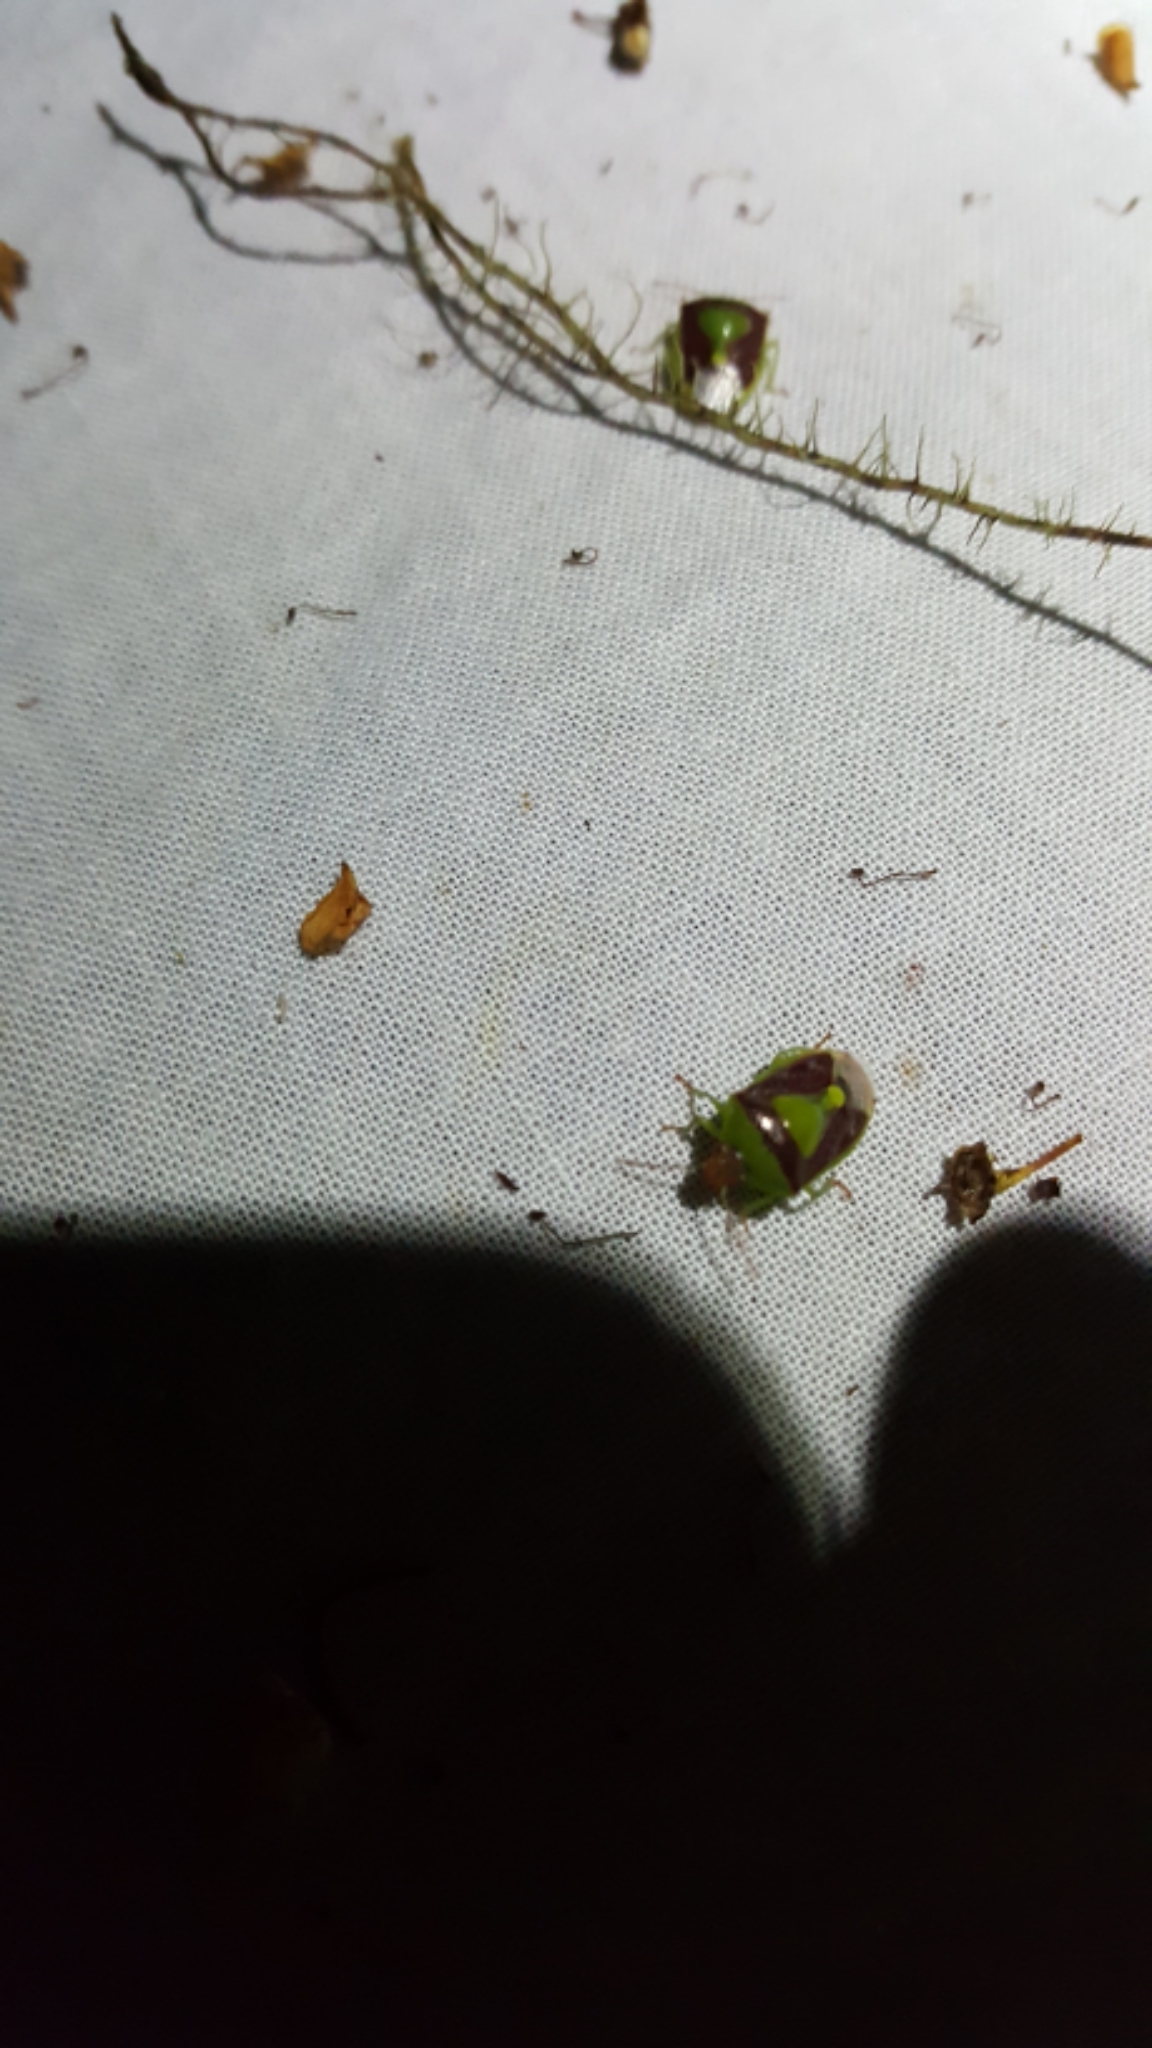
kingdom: Animalia
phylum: Arthropoda
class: Insecta
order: Hemiptera
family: Pentatomidae
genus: Banasa
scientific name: Banasa dimidiata
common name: Green burgundy stink bug
